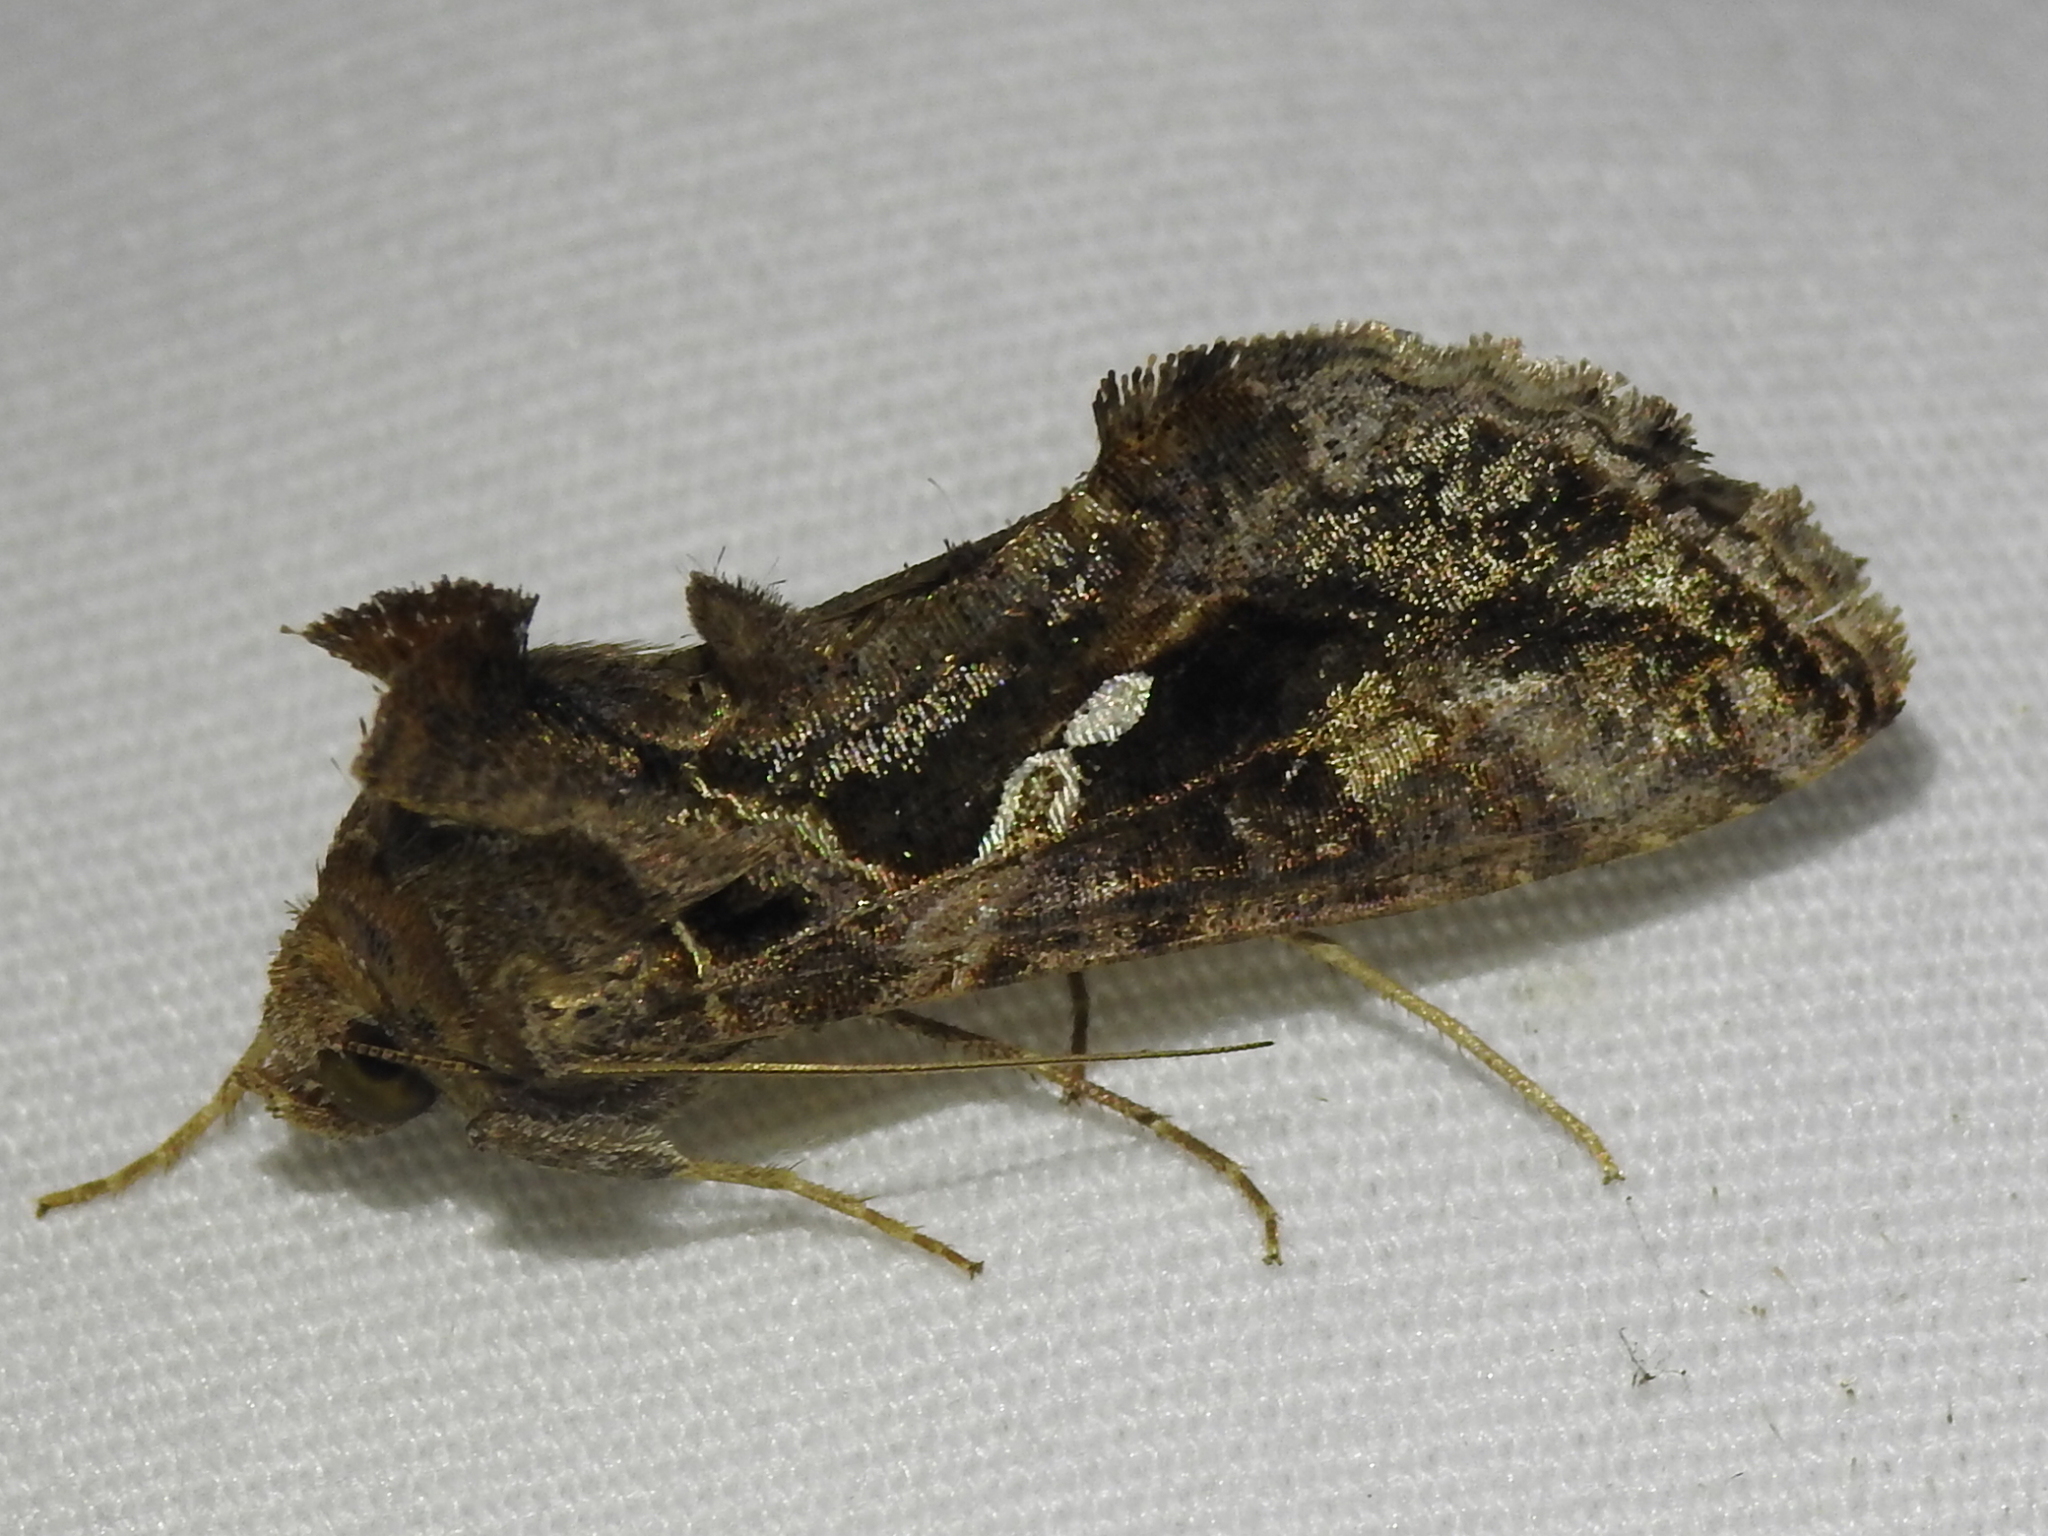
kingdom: Animalia
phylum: Arthropoda
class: Insecta
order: Lepidoptera
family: Noctuidae
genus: Chrysodeixis
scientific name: Chrysodeixis includens
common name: Cutworm moth
